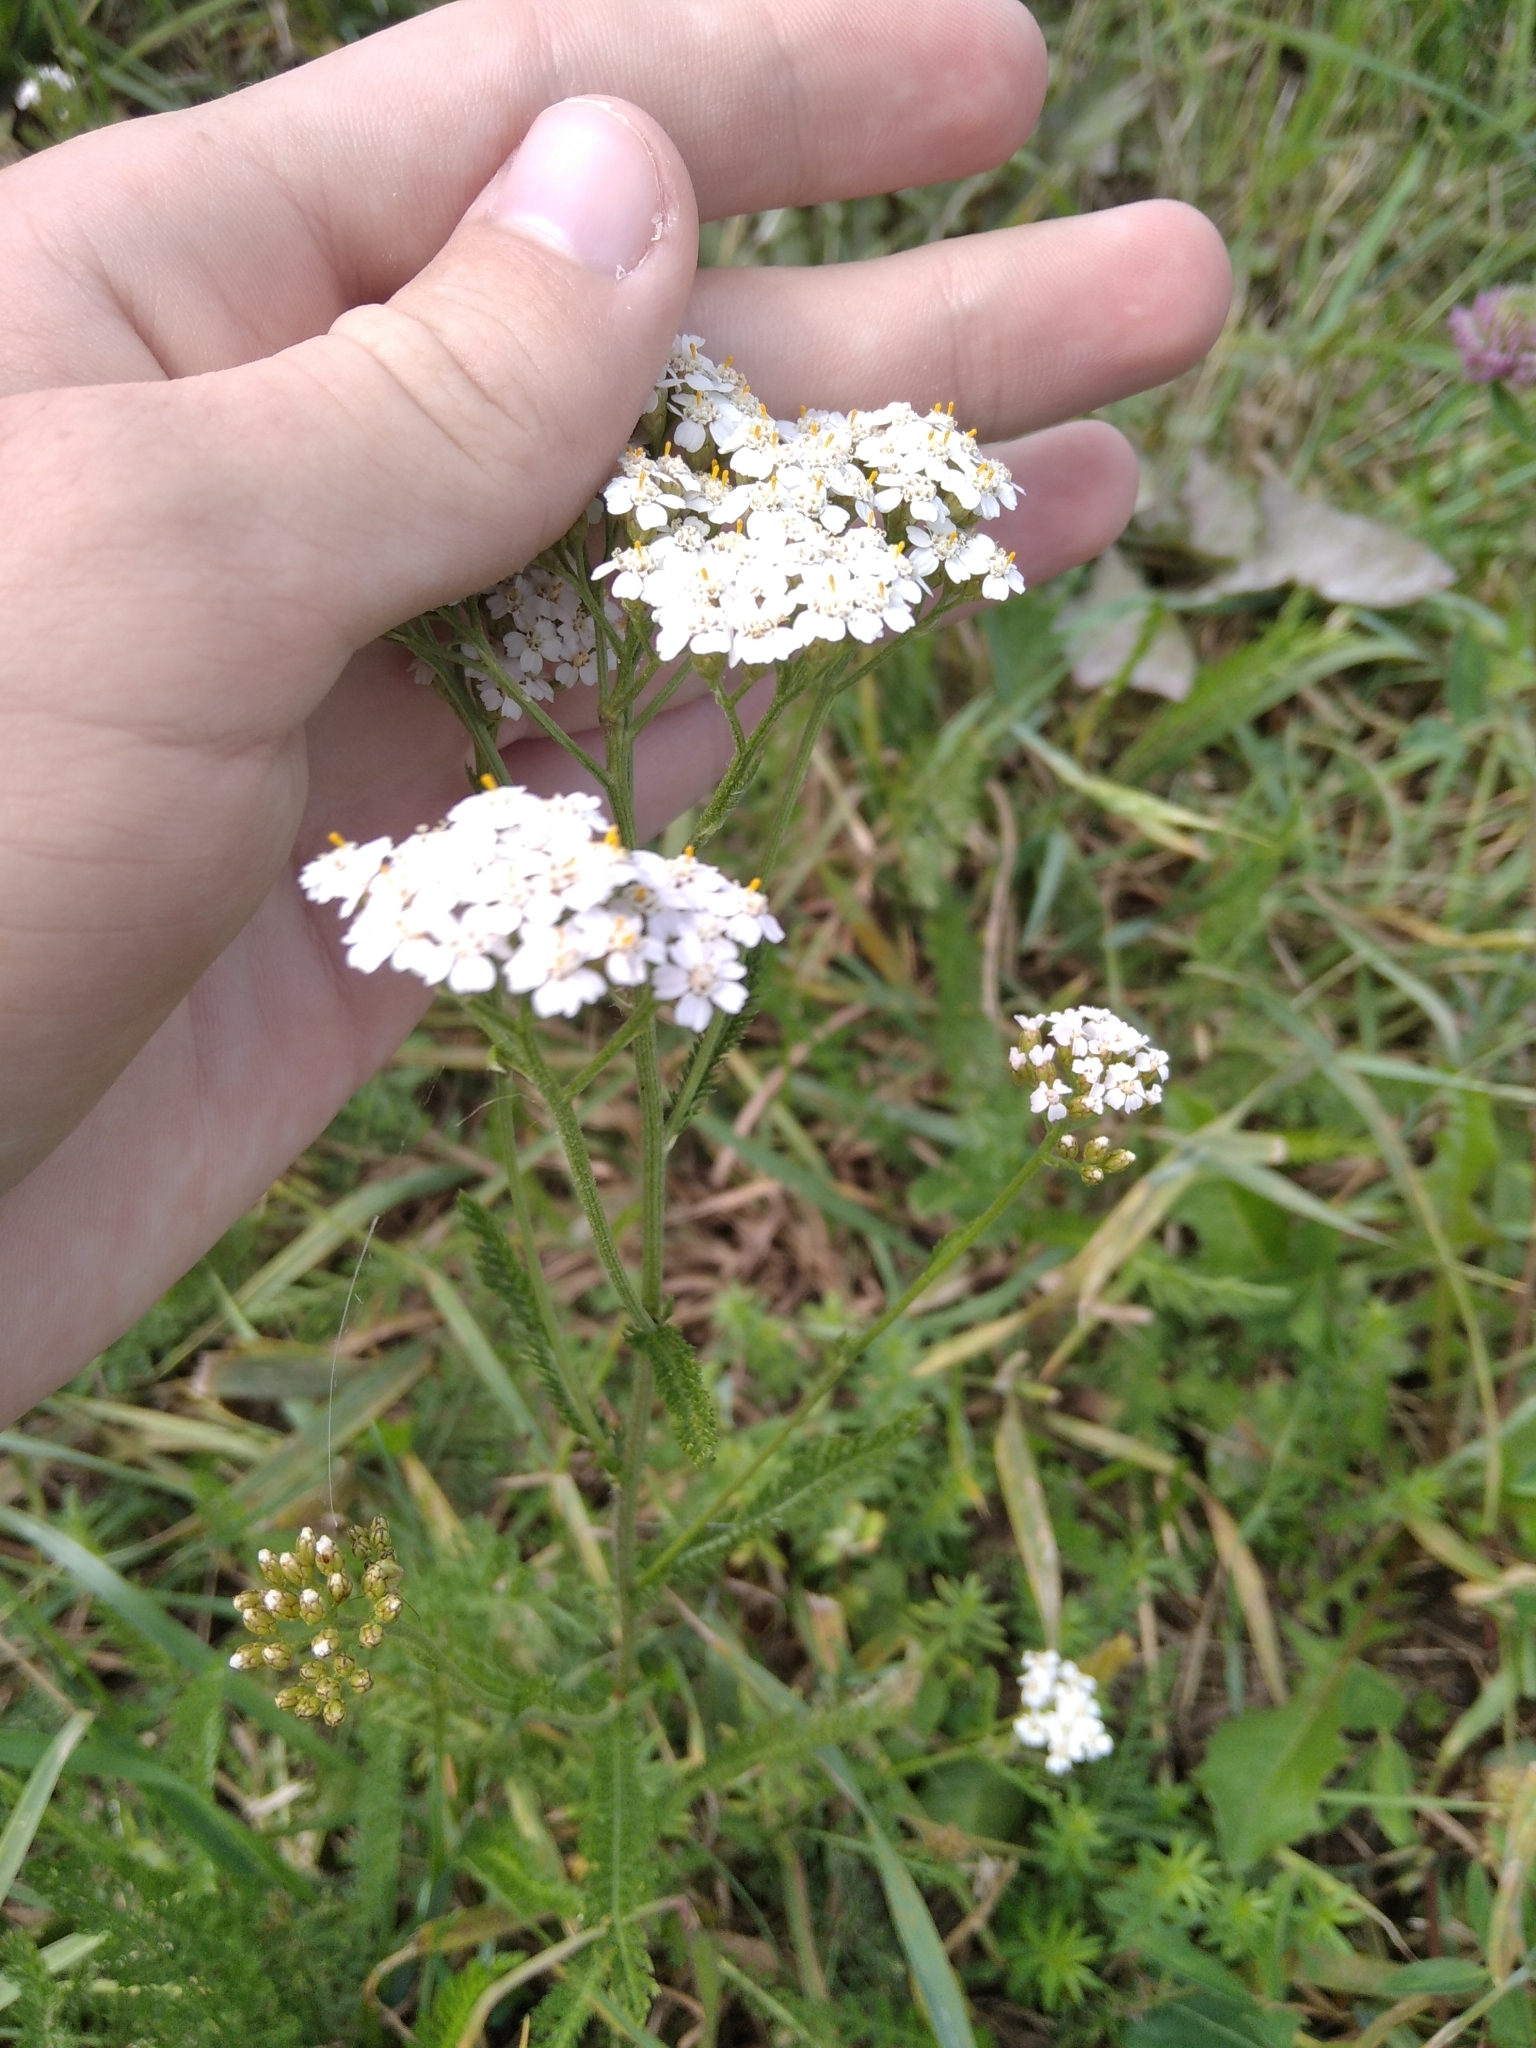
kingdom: Plantae
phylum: Tracheophyta
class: Magnoliopsida
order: Asterales
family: Asteraceae
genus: Achillea
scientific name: Achillea millefolium
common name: Yarrow
